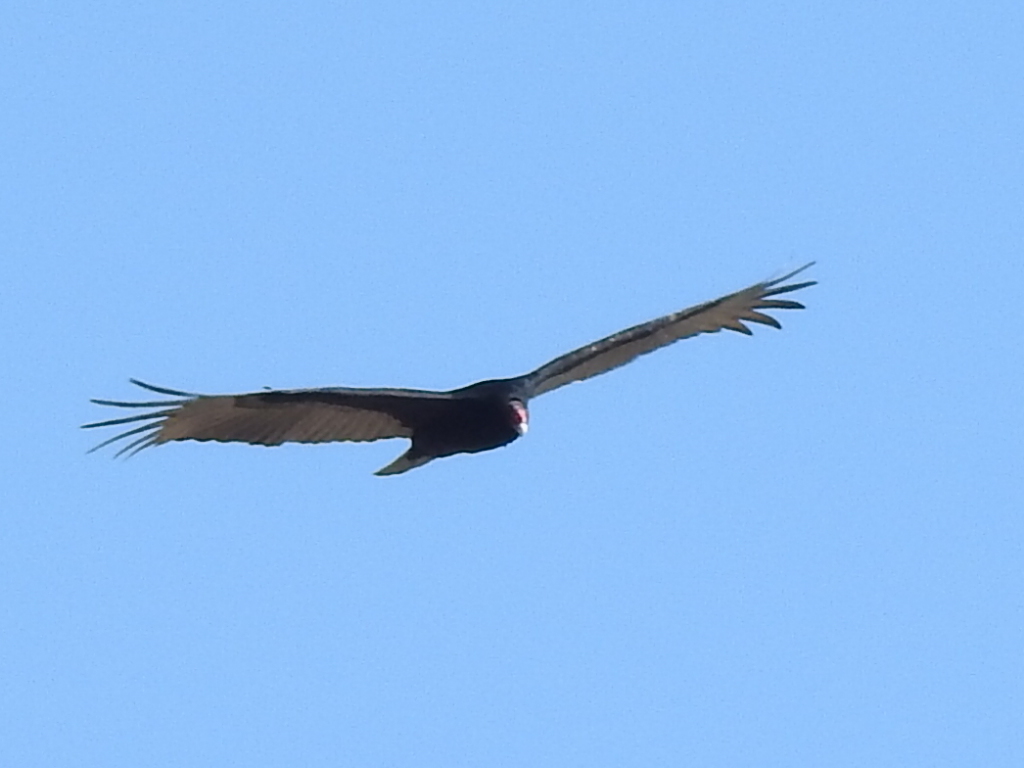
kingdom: Animalia
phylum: Chordata
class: Aves
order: Accipitriformes
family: Cathartidae
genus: Cathartes
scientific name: Cathartes aura
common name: Turkey vulture
